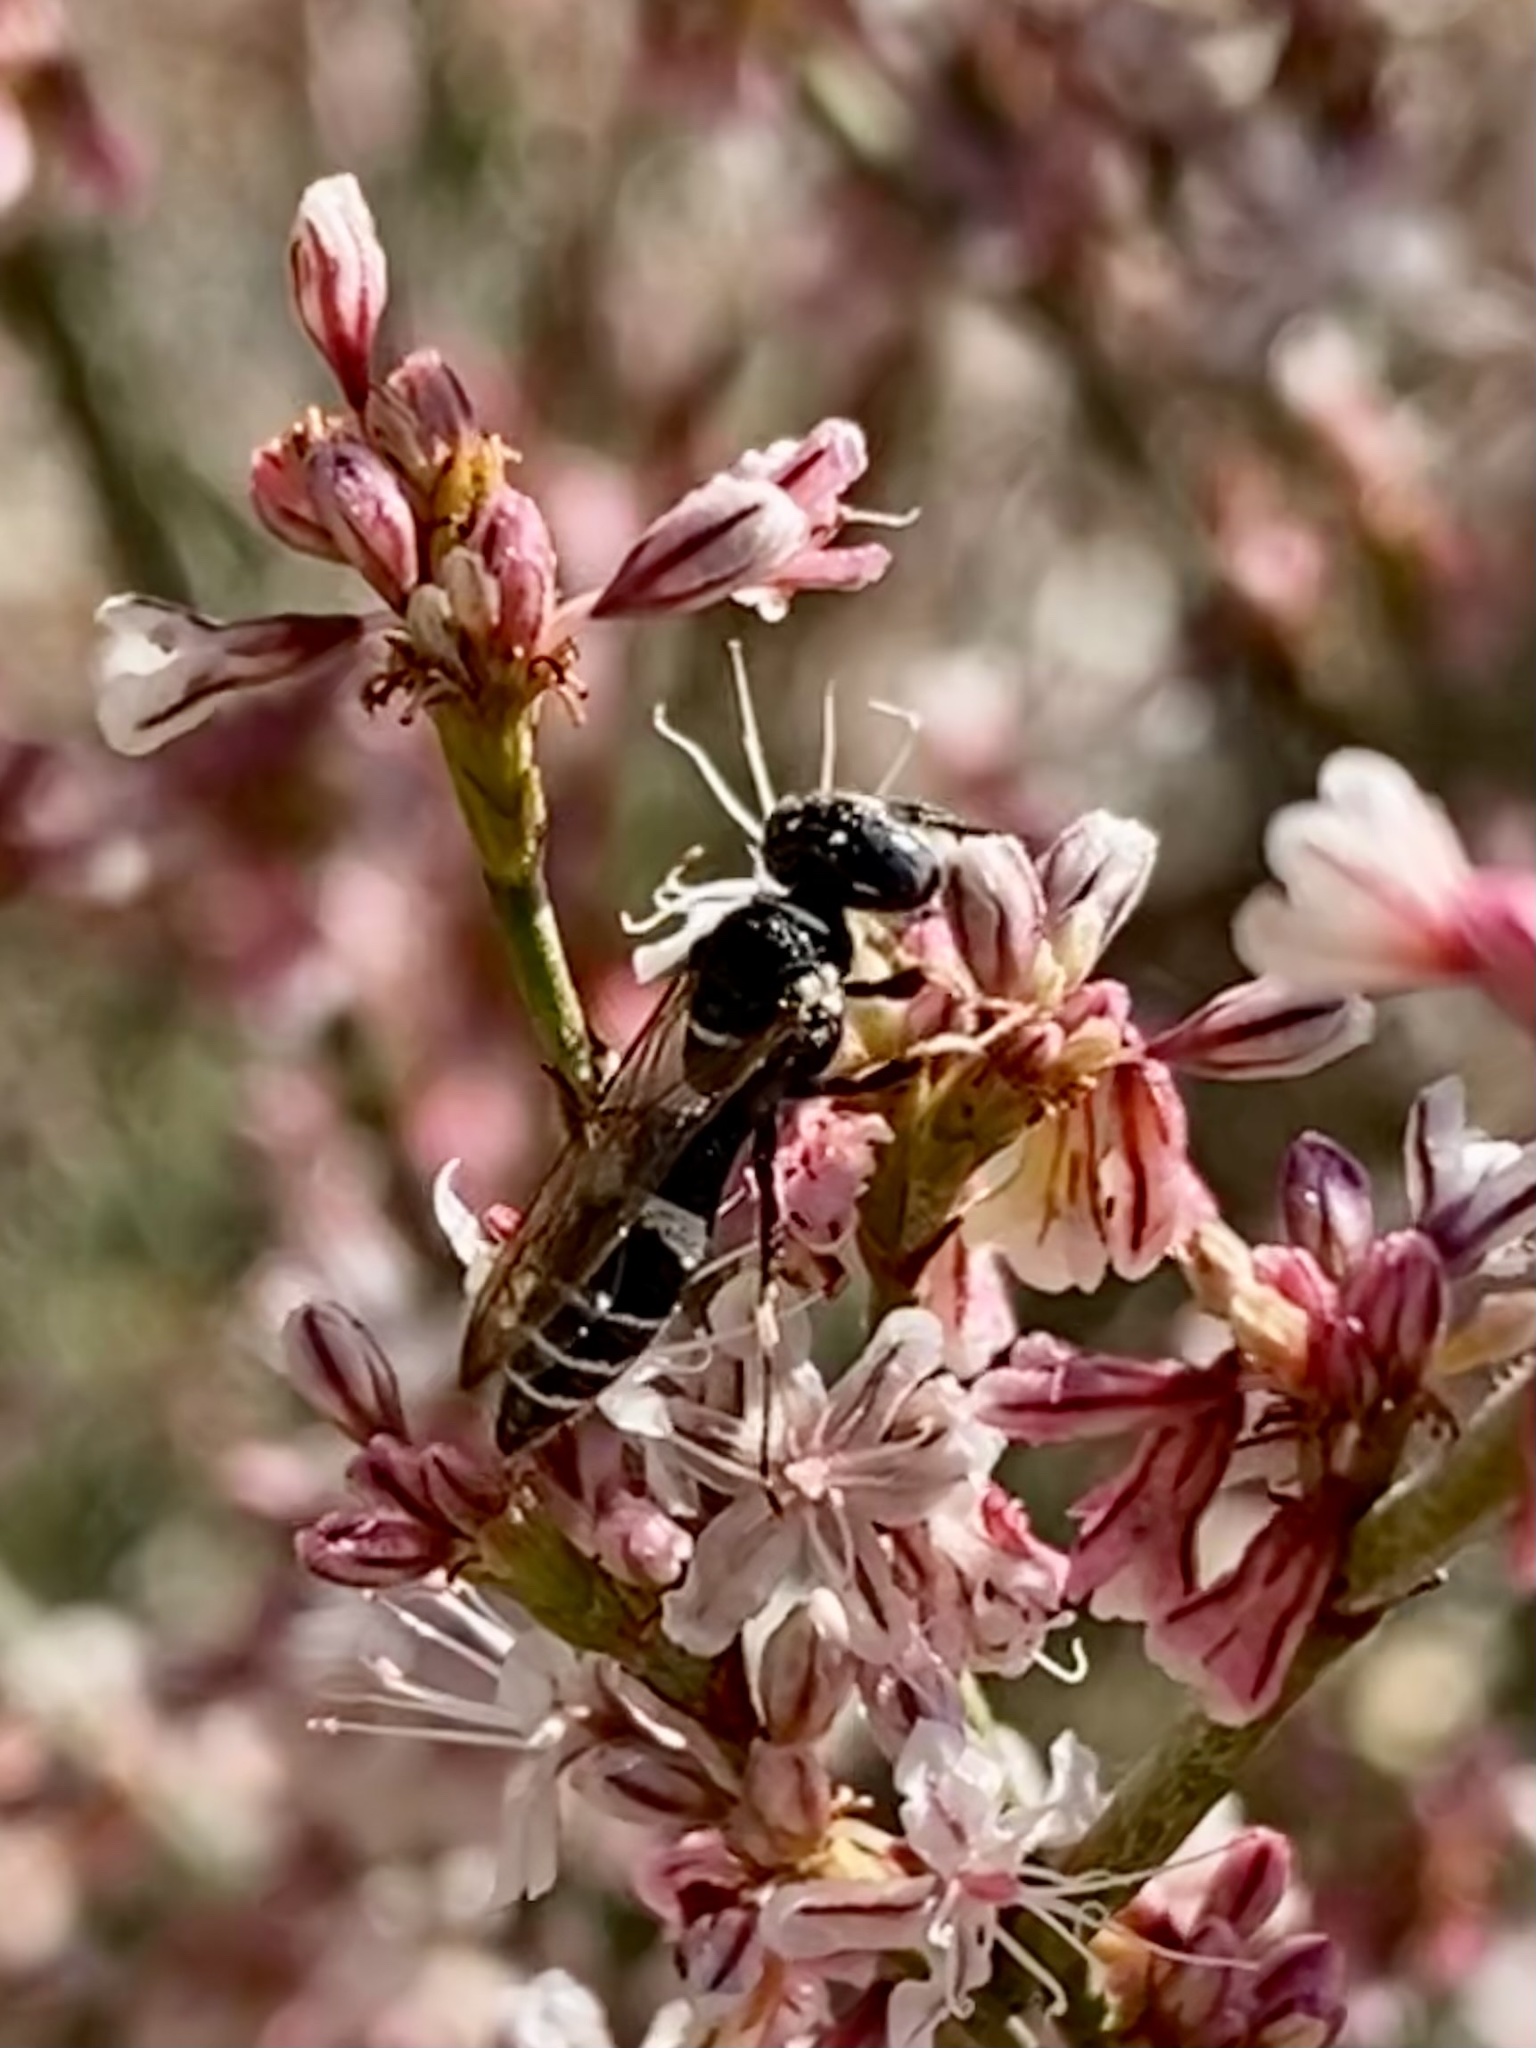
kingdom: Animalia
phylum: Arthropoda
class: Insecta
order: Hymenoptera
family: Crabronidae
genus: Philanthus
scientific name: Philanthus gibbosus
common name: Humped beewolf
